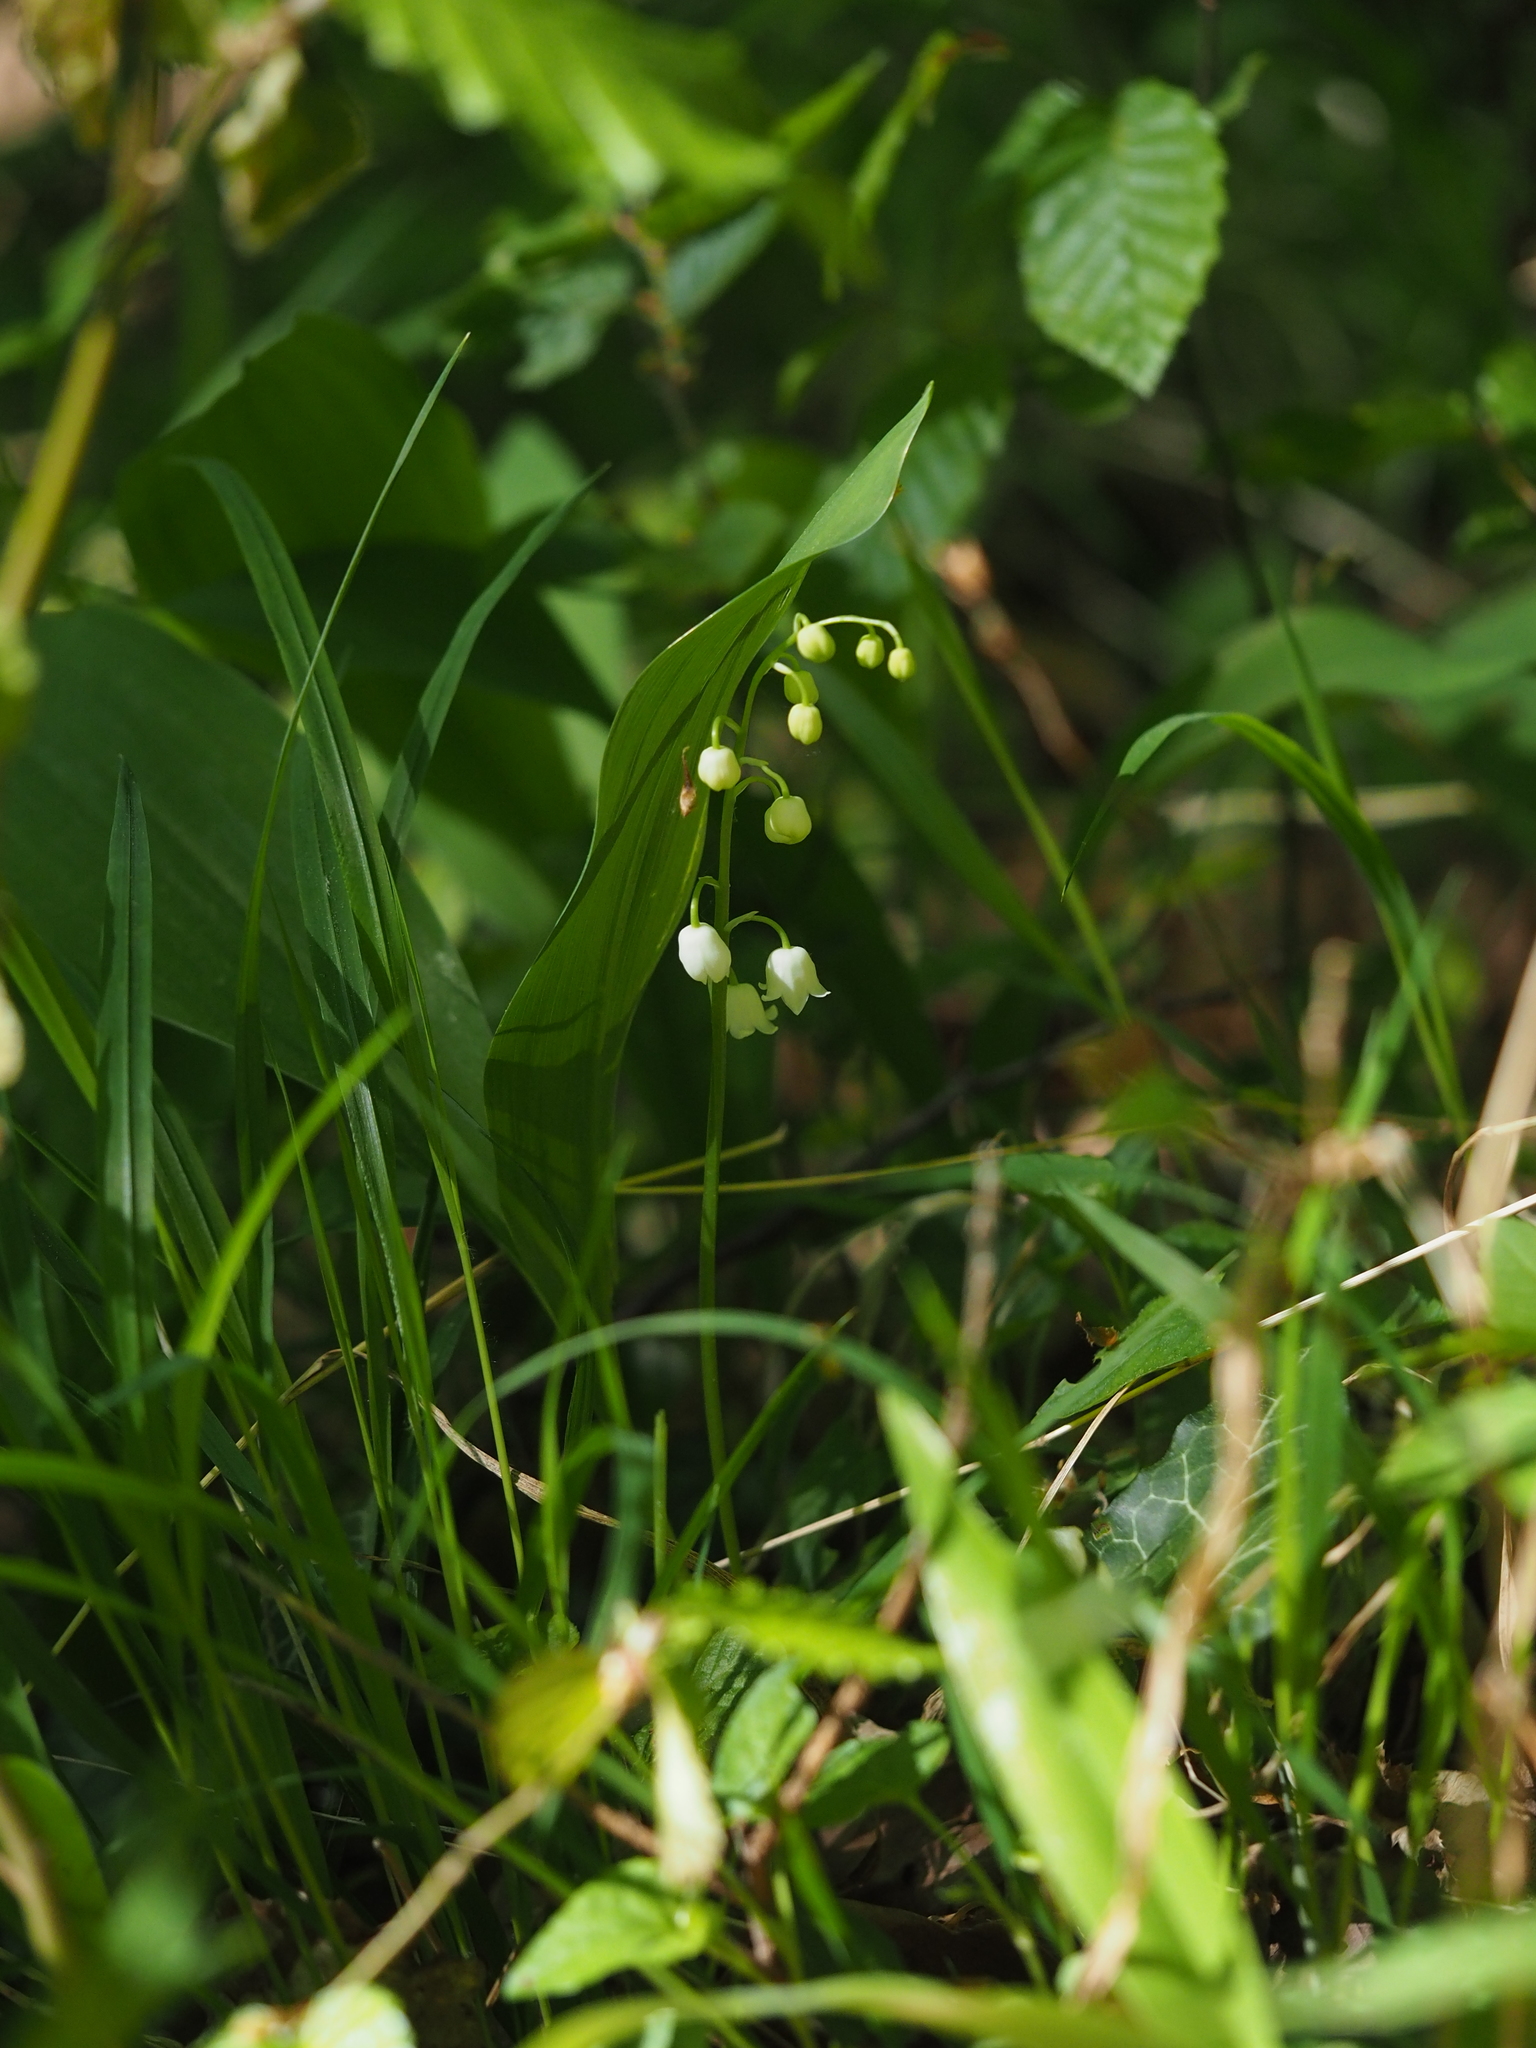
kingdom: Plantae
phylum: Tracheophyta
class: Liliopsida
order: Asparagales
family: Asparagaceae
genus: Convallaria
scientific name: Convallaria majalis
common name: Lily-of-the-valley
